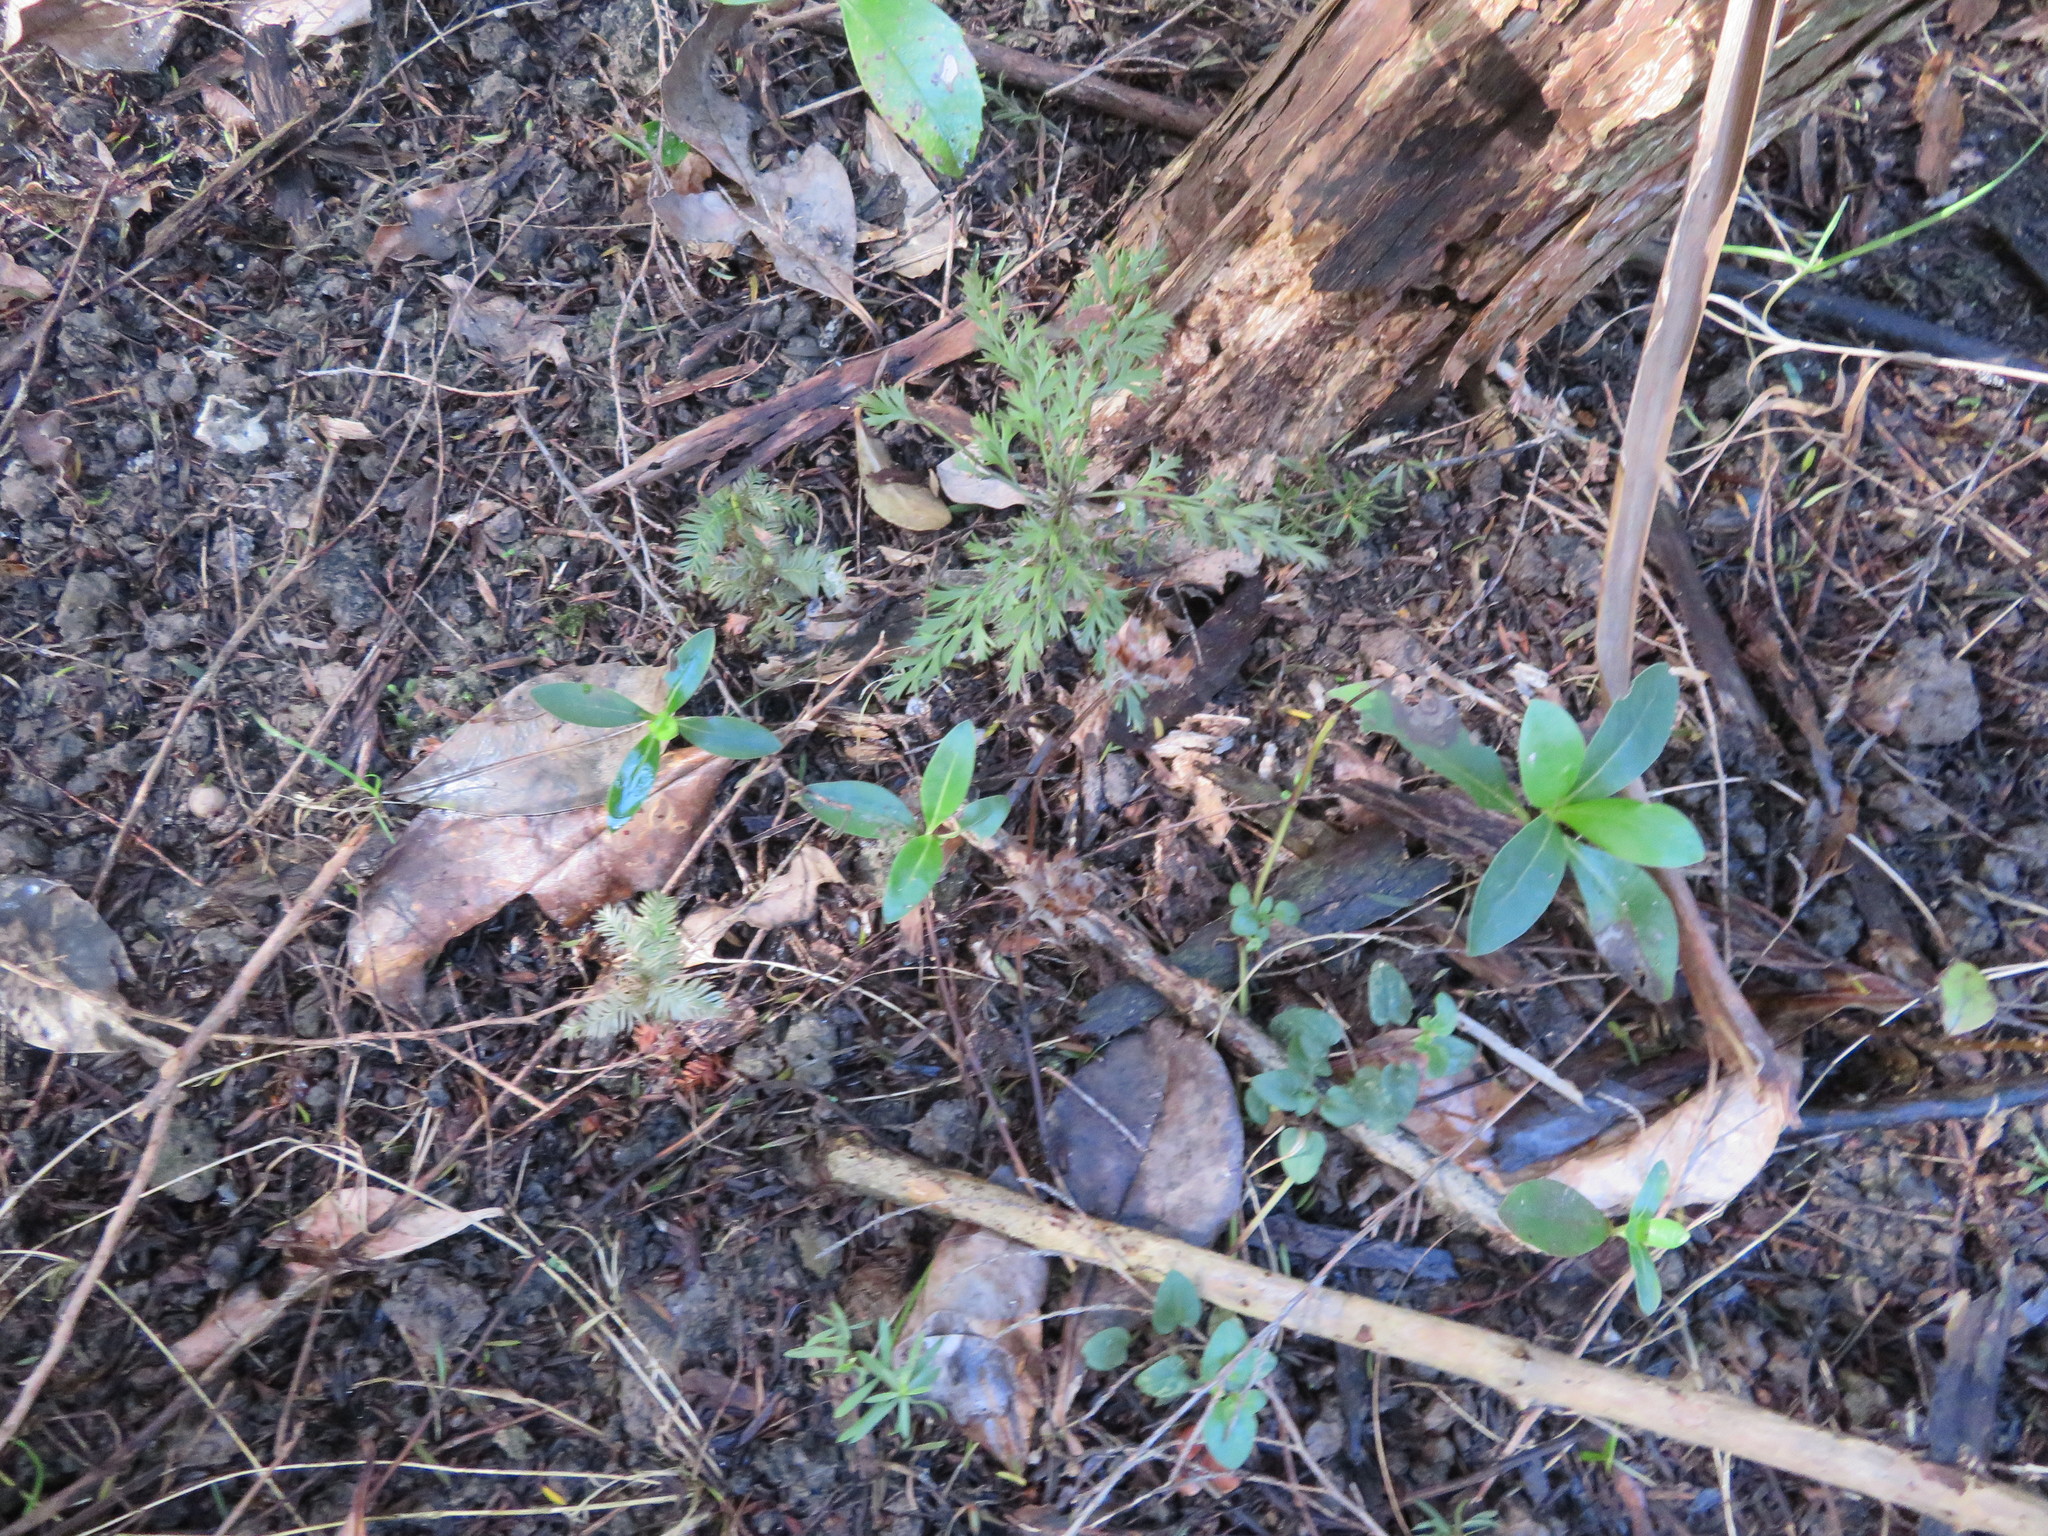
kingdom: Plantae
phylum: Tracheophyta
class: Pinopsida
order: Pinales
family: Phyllocladaceae
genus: Phyllocladus
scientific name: Phyllocladus trichomanoides
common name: Celery pine
